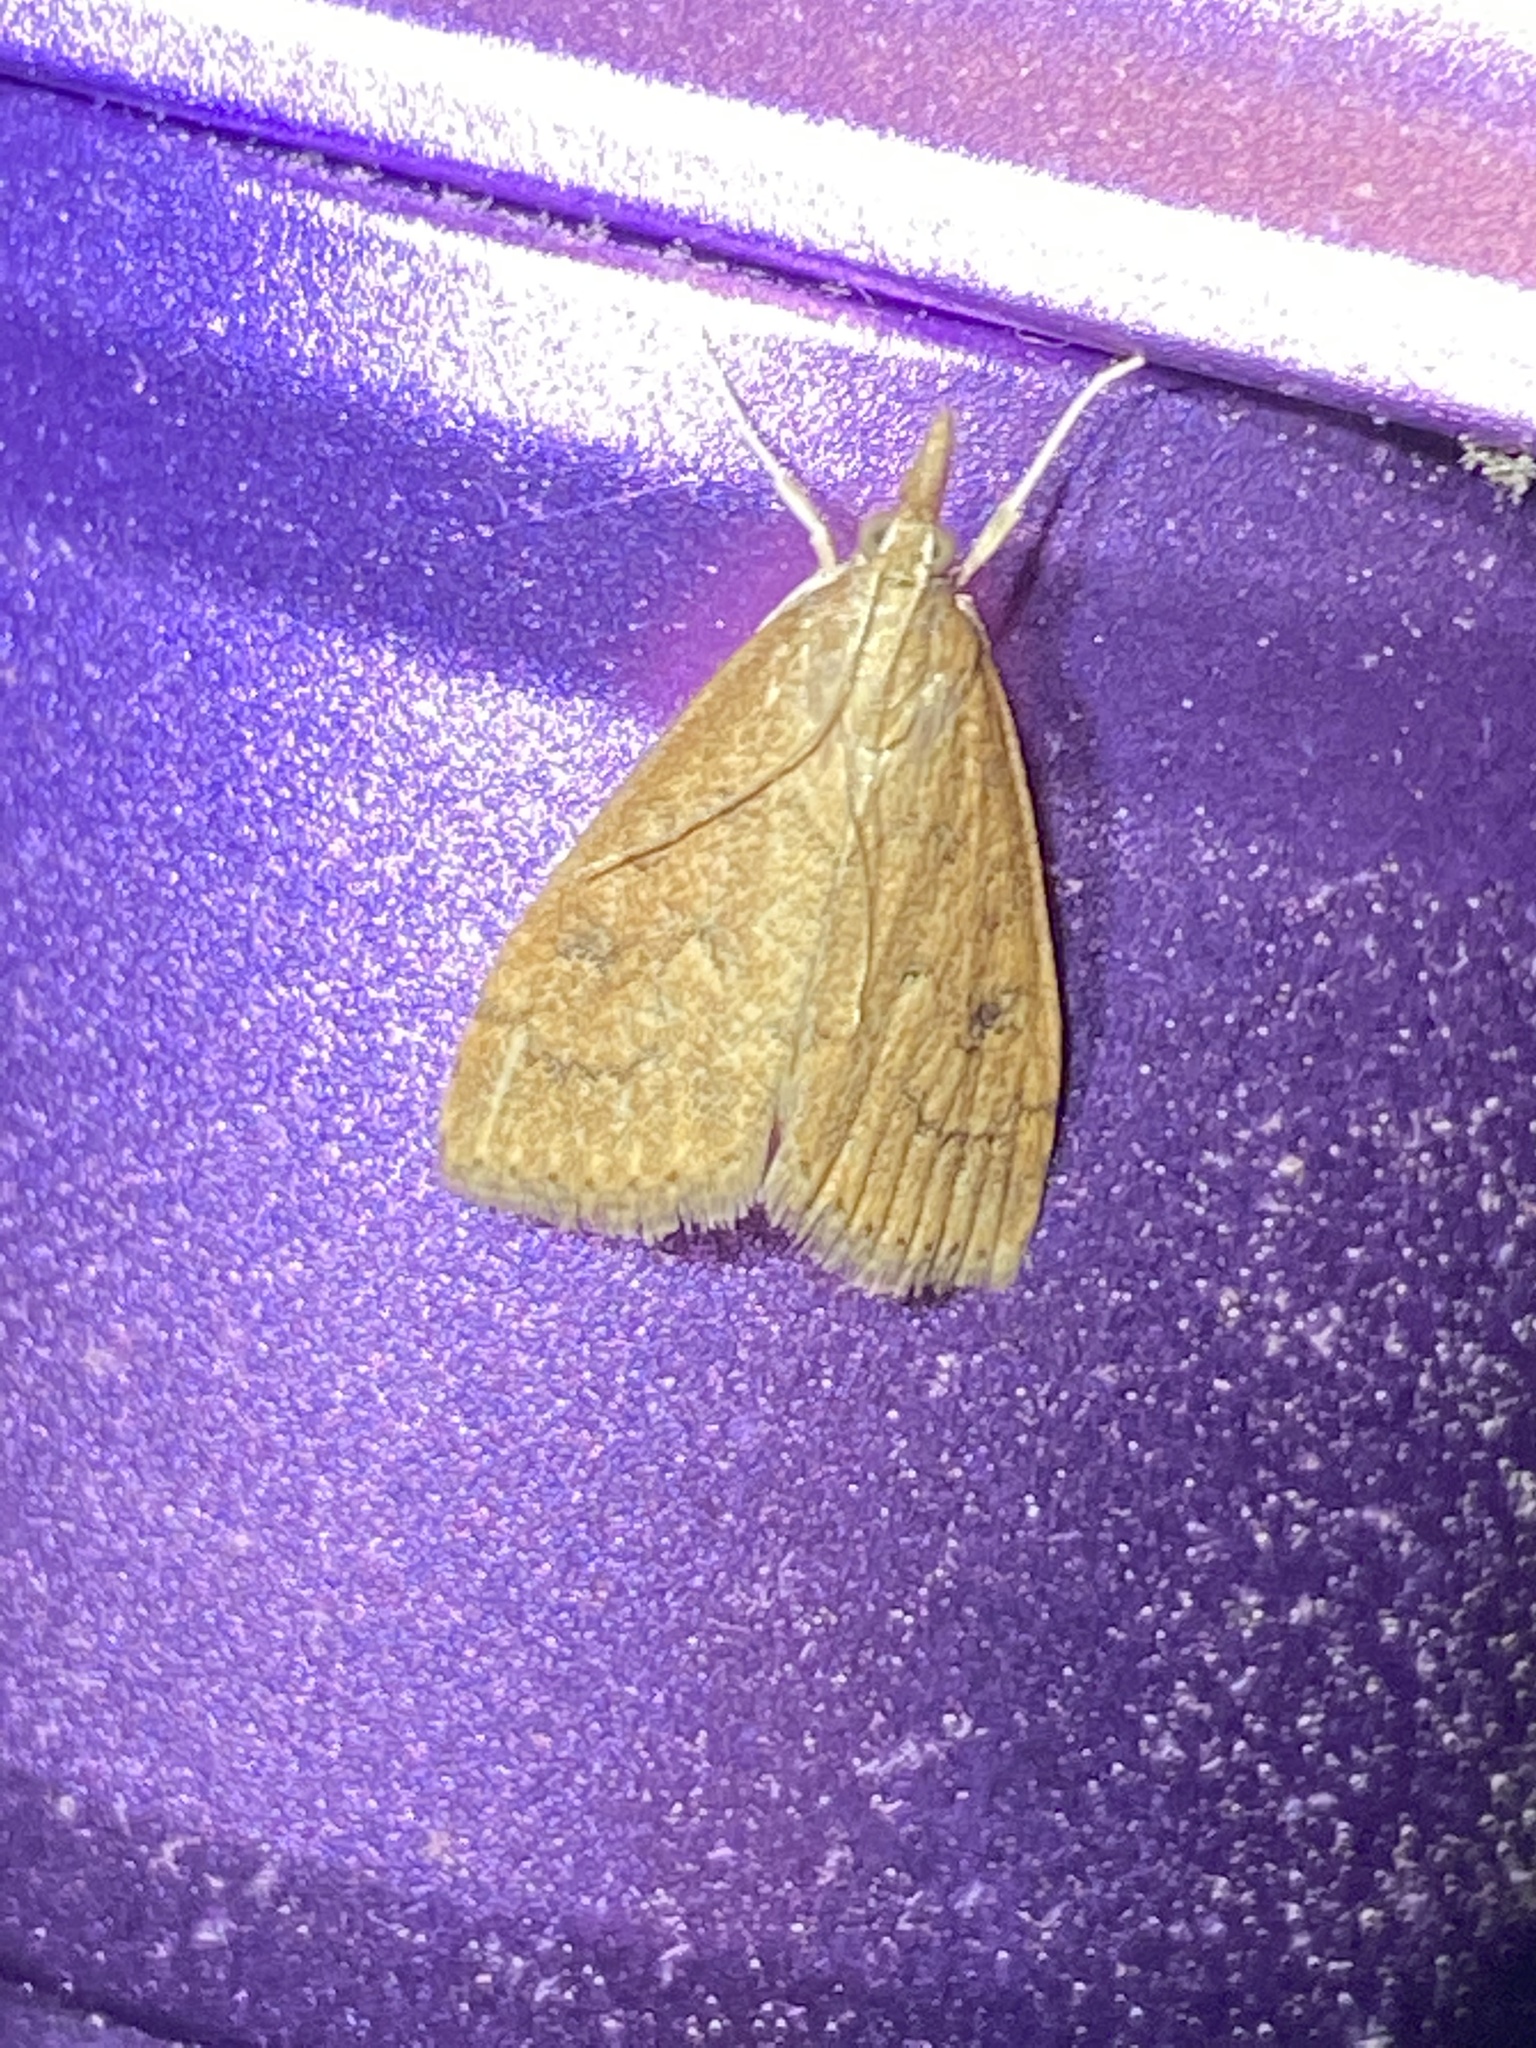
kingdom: Animalia
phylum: Arthropoda
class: Insecta
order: Lepidoptera
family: Crambidae
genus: Udea
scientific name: Udea rubigalis
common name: Celery leaftier moth
